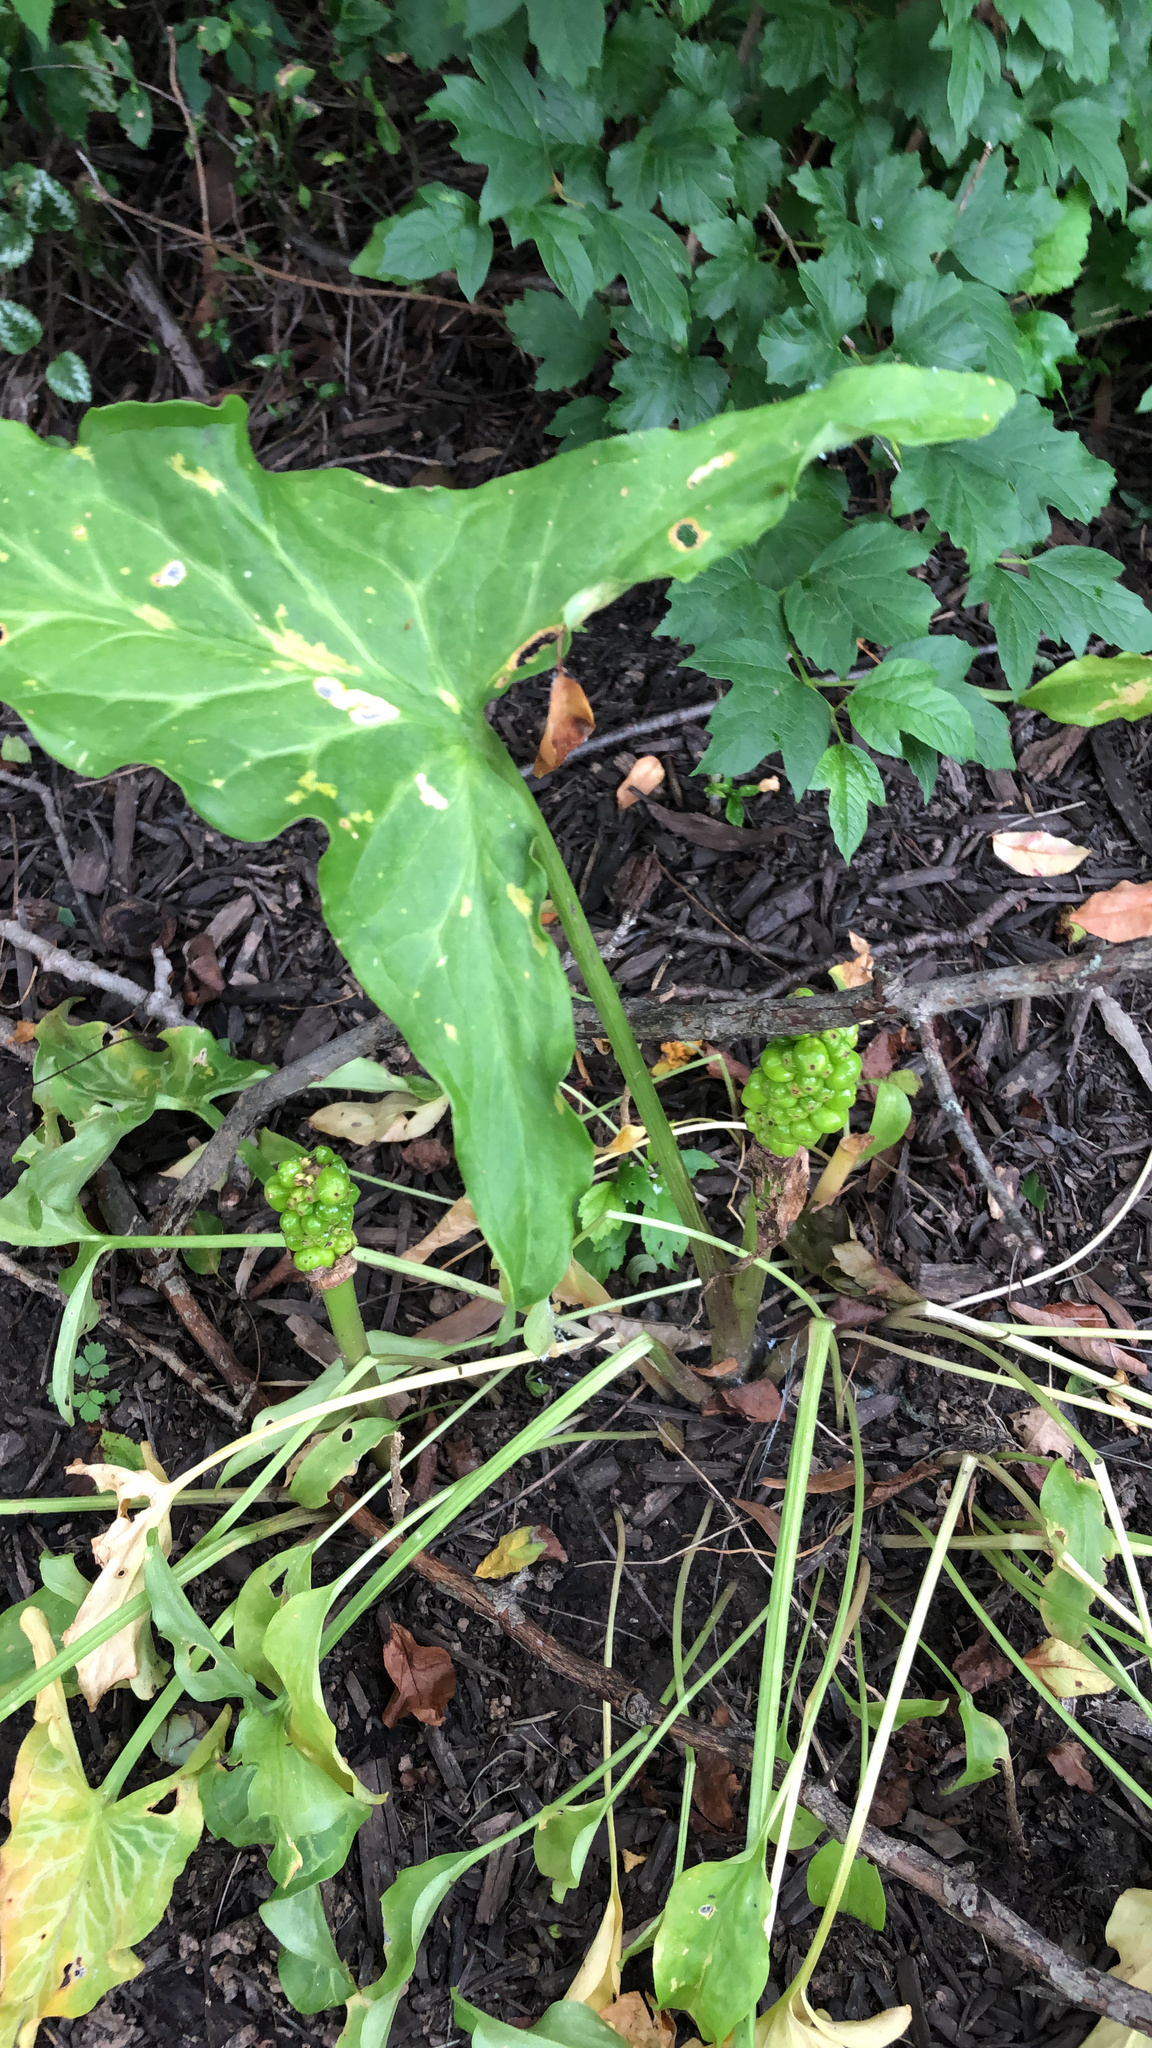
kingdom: Plantae
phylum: Tracheophyta
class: Liliopsida
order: Alismatales
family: Araceae
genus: Arum
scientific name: Arum italicum
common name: Italian lords-and-ladies
